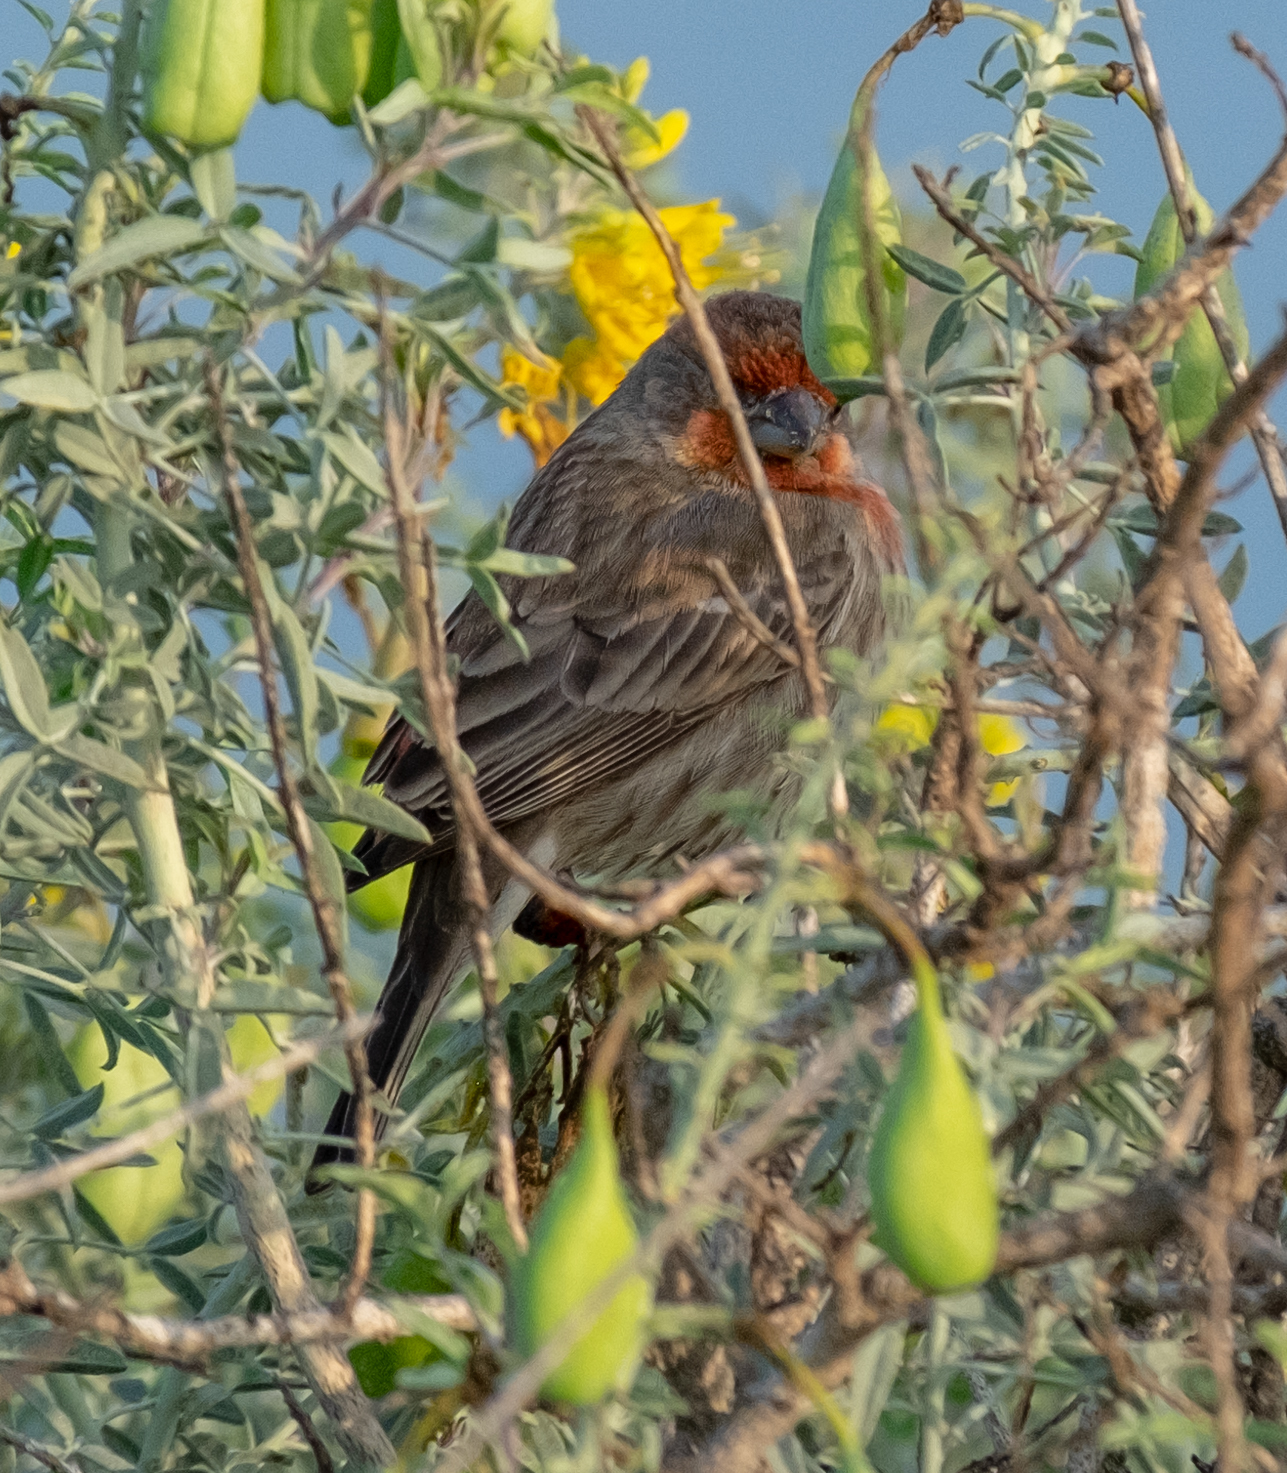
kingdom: Animalia
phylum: Chordata
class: Aves
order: Passeriformes
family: Fringillidae
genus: Haemorhous
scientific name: Haemorhous mexicanus
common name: House finch
